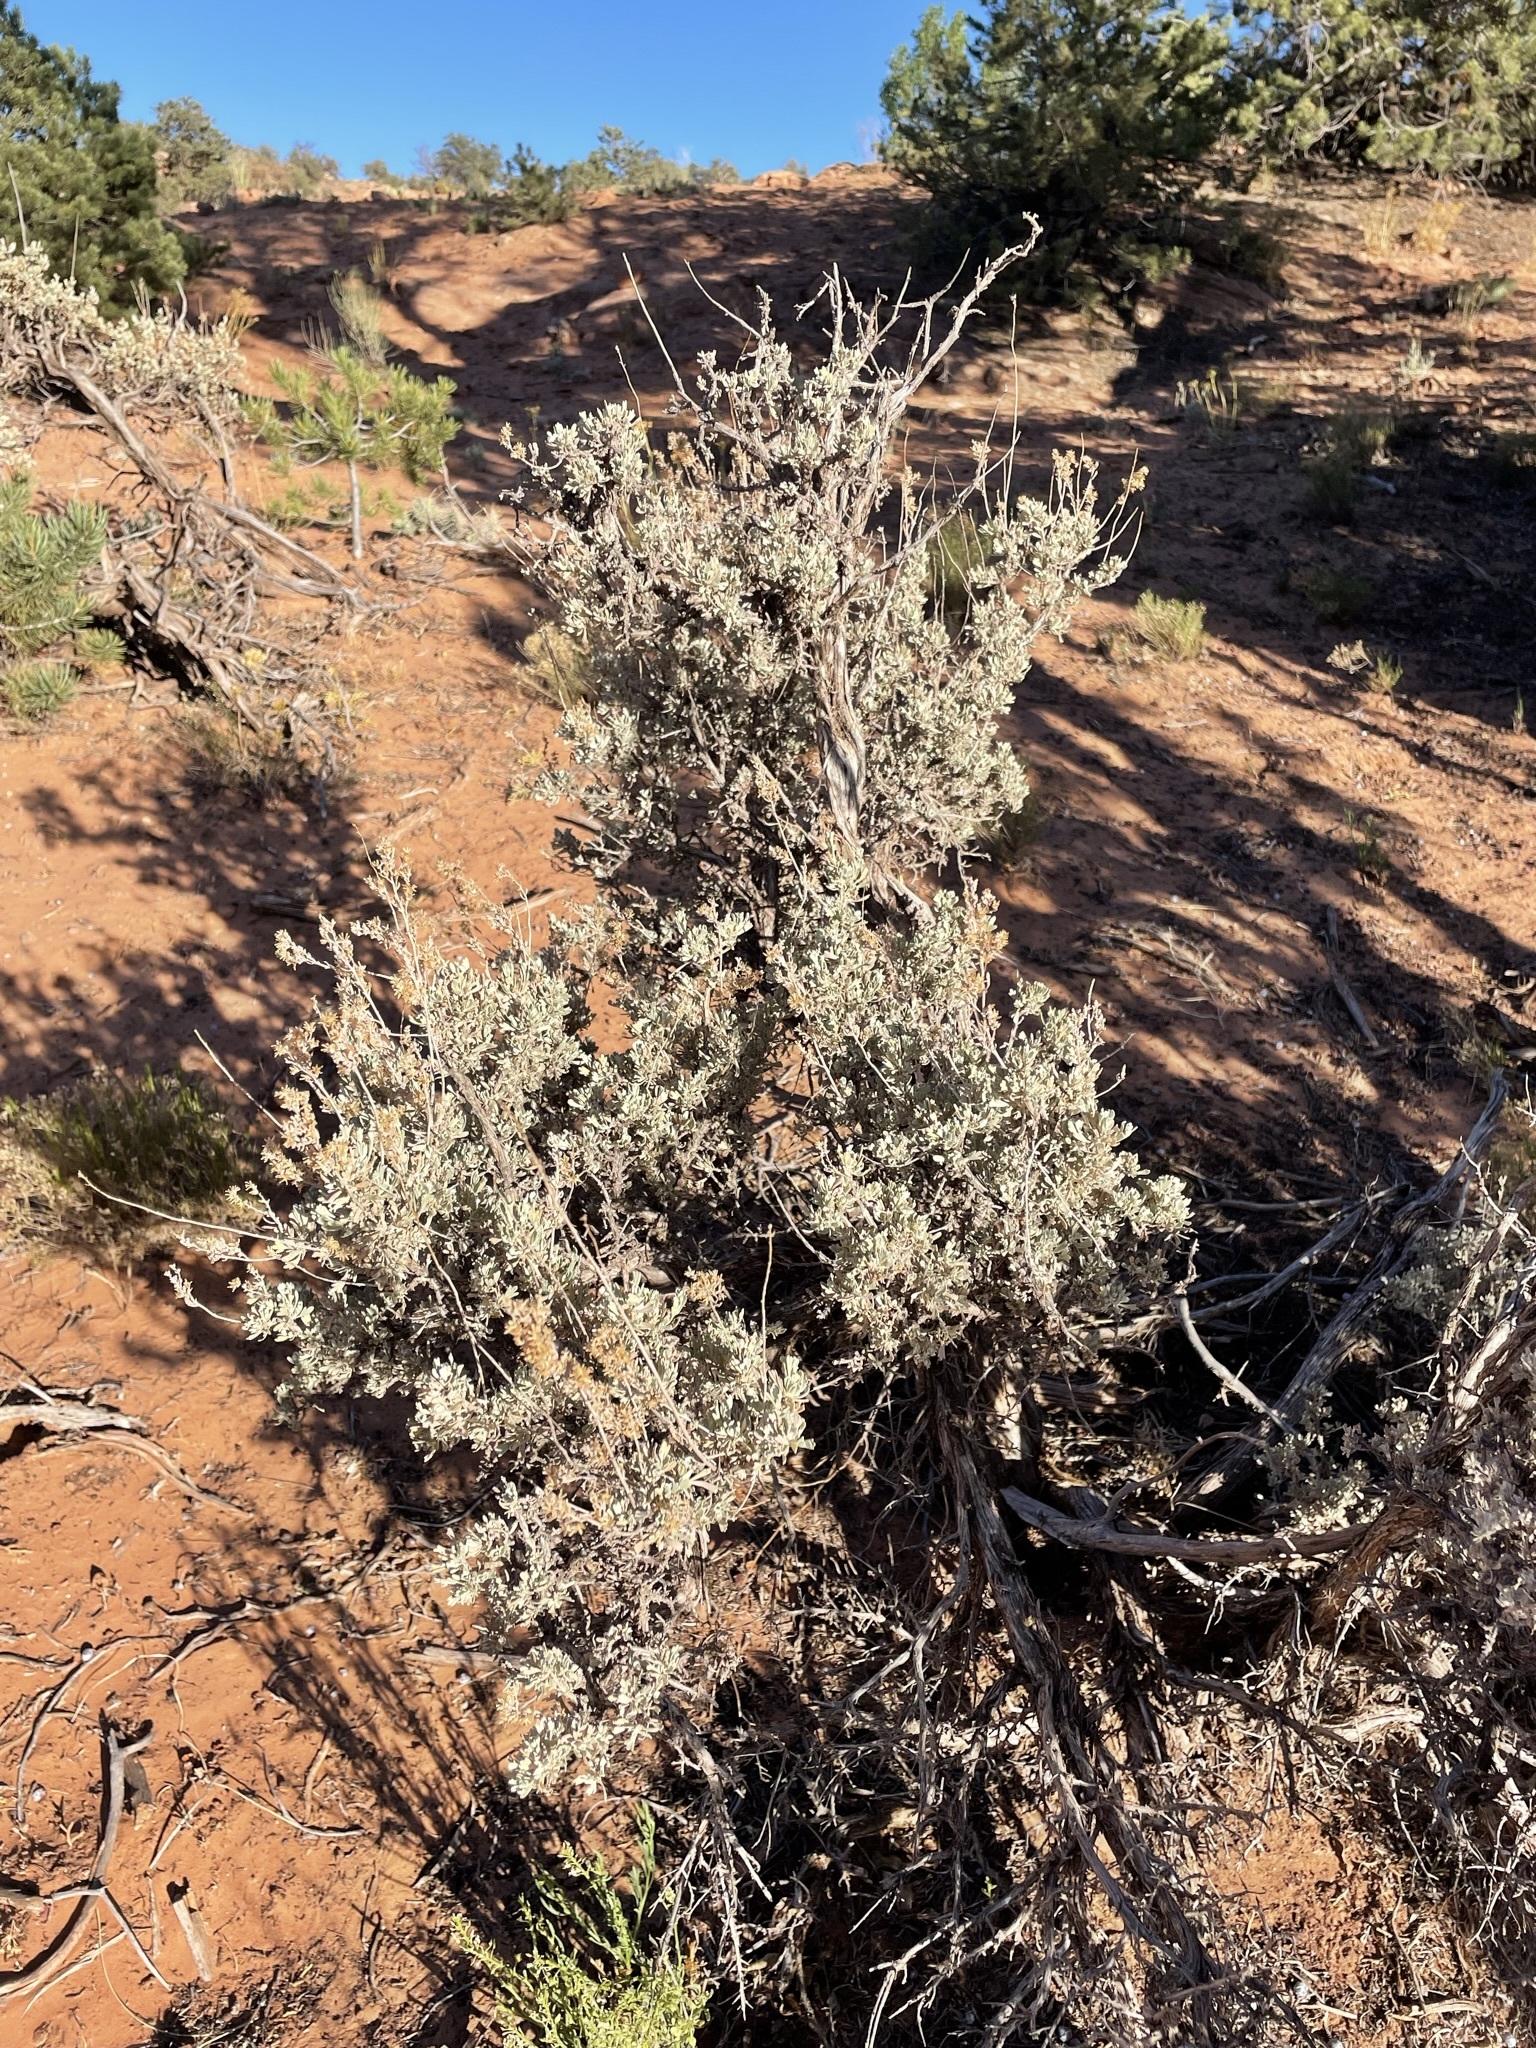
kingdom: Plantae
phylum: Tracheophyta
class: Magnoliopsida
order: Asterales
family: Asteraceae
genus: Artemisia
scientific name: Artemisia tridentata
